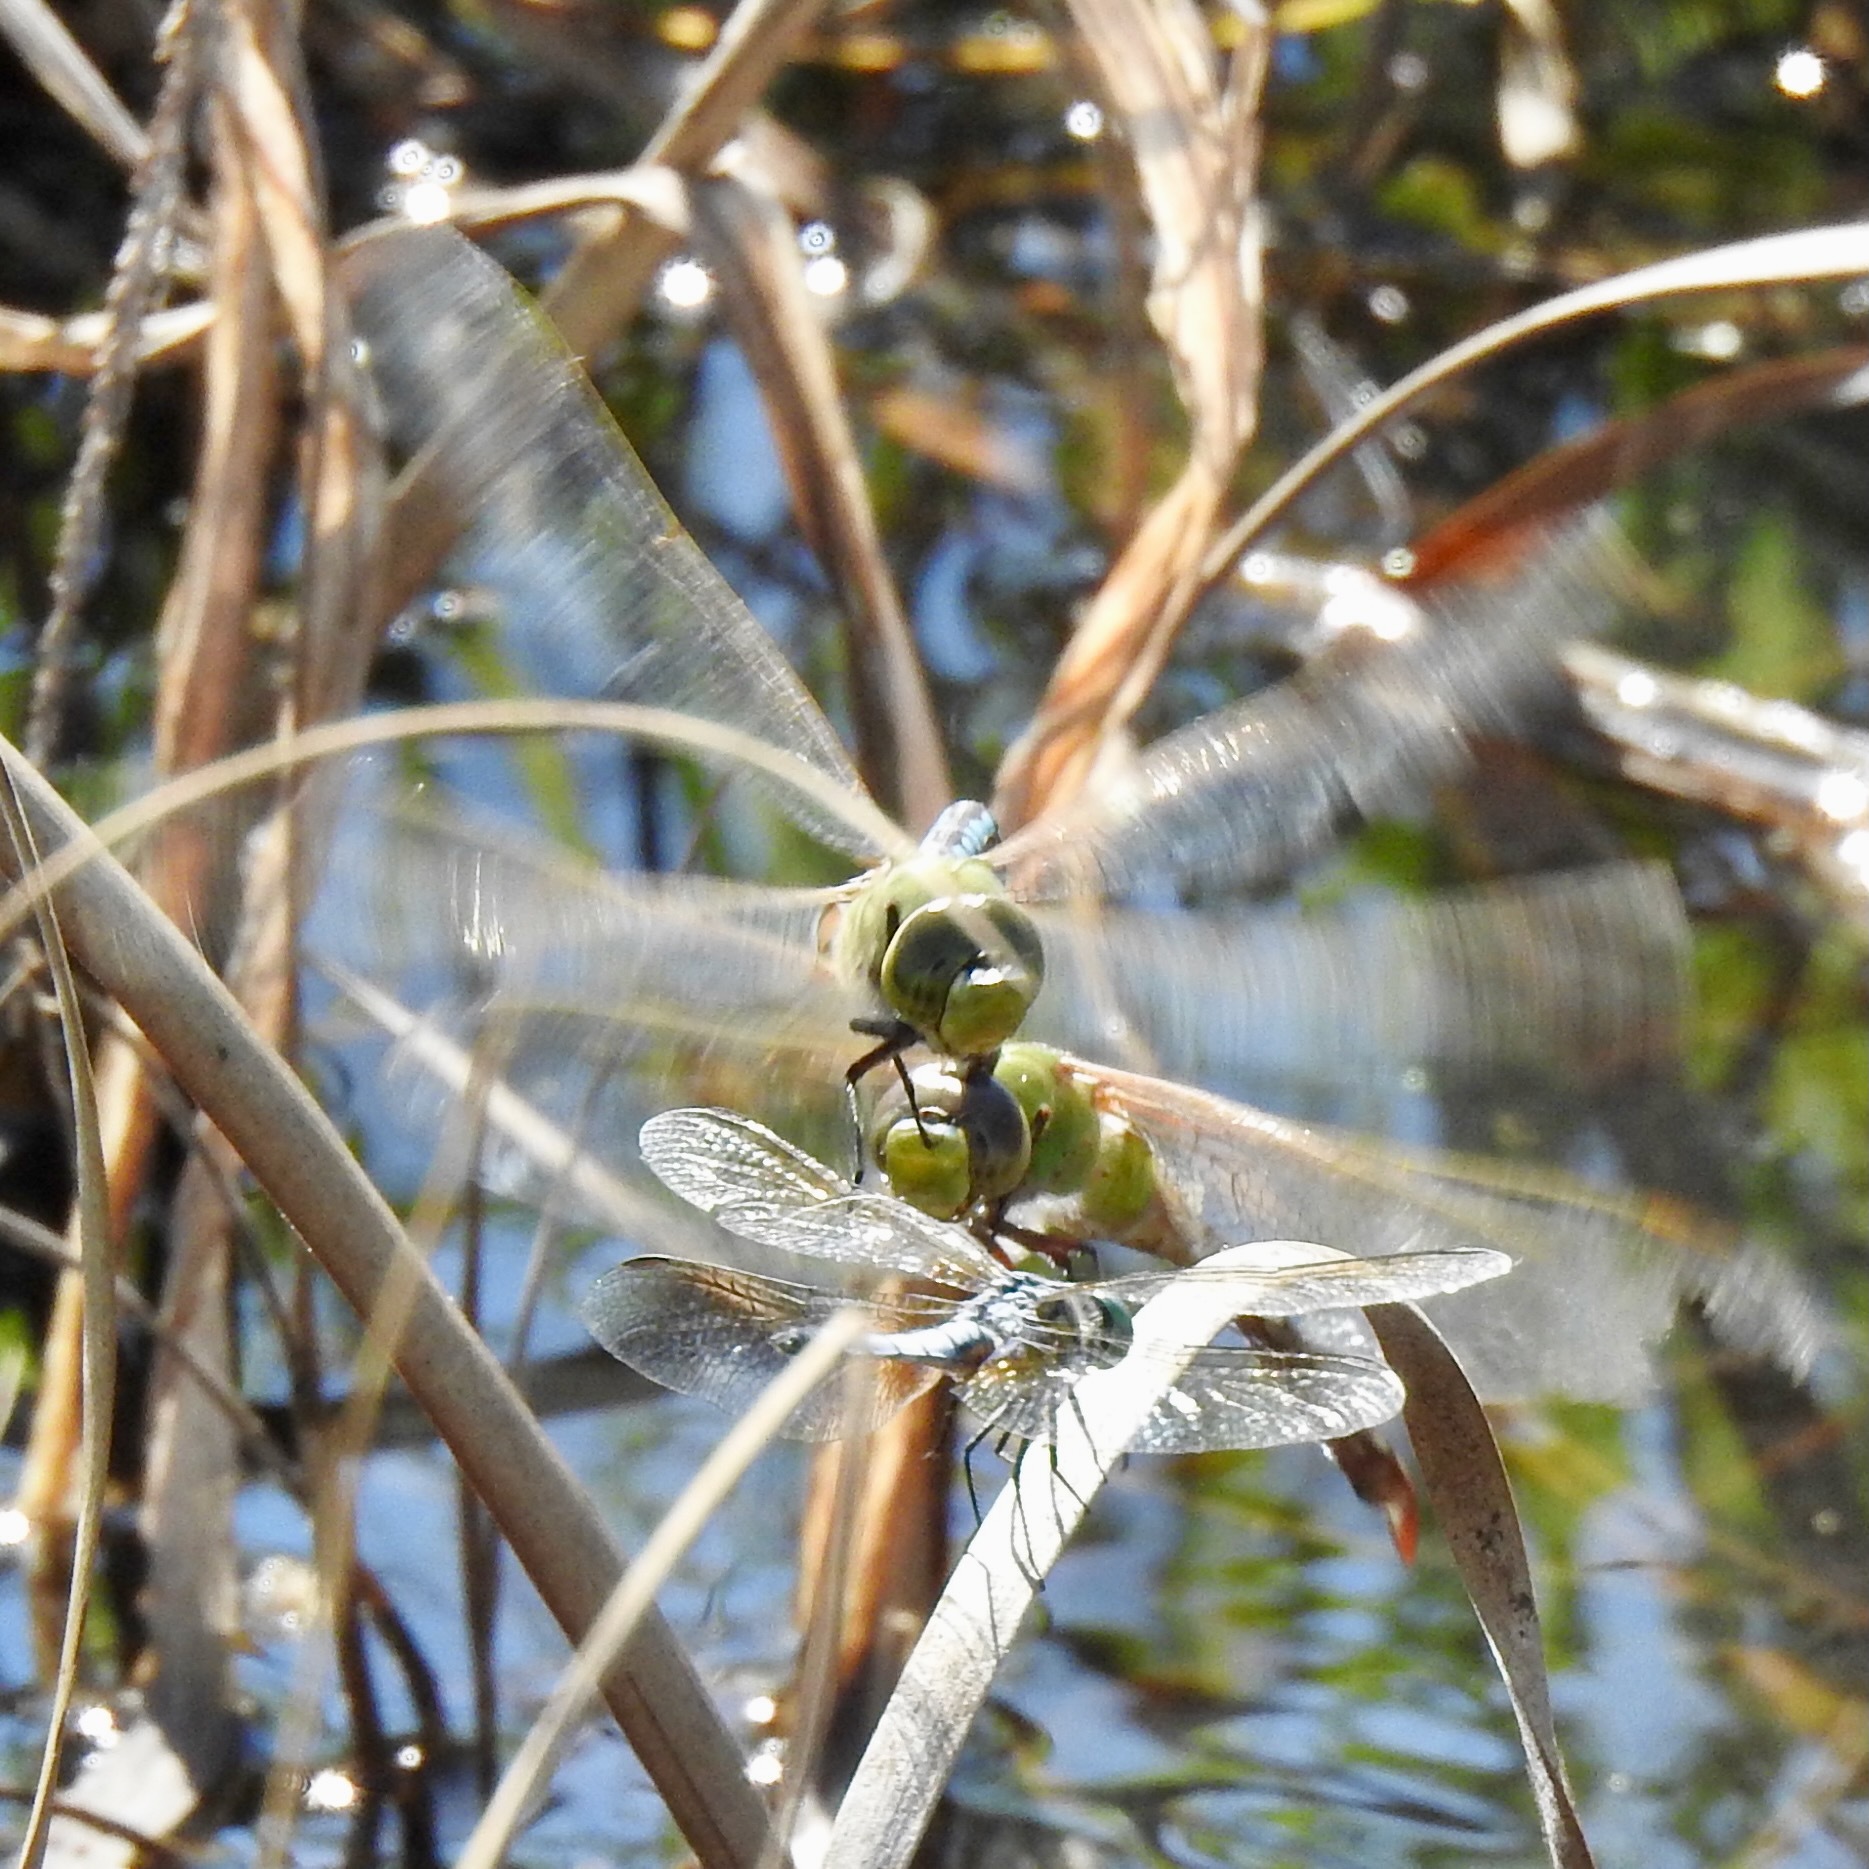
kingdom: Animalia
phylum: Arthropoda
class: Insecta
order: Odonata
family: Aeshnidae
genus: Anax
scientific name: Anax junius
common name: Common green darner
